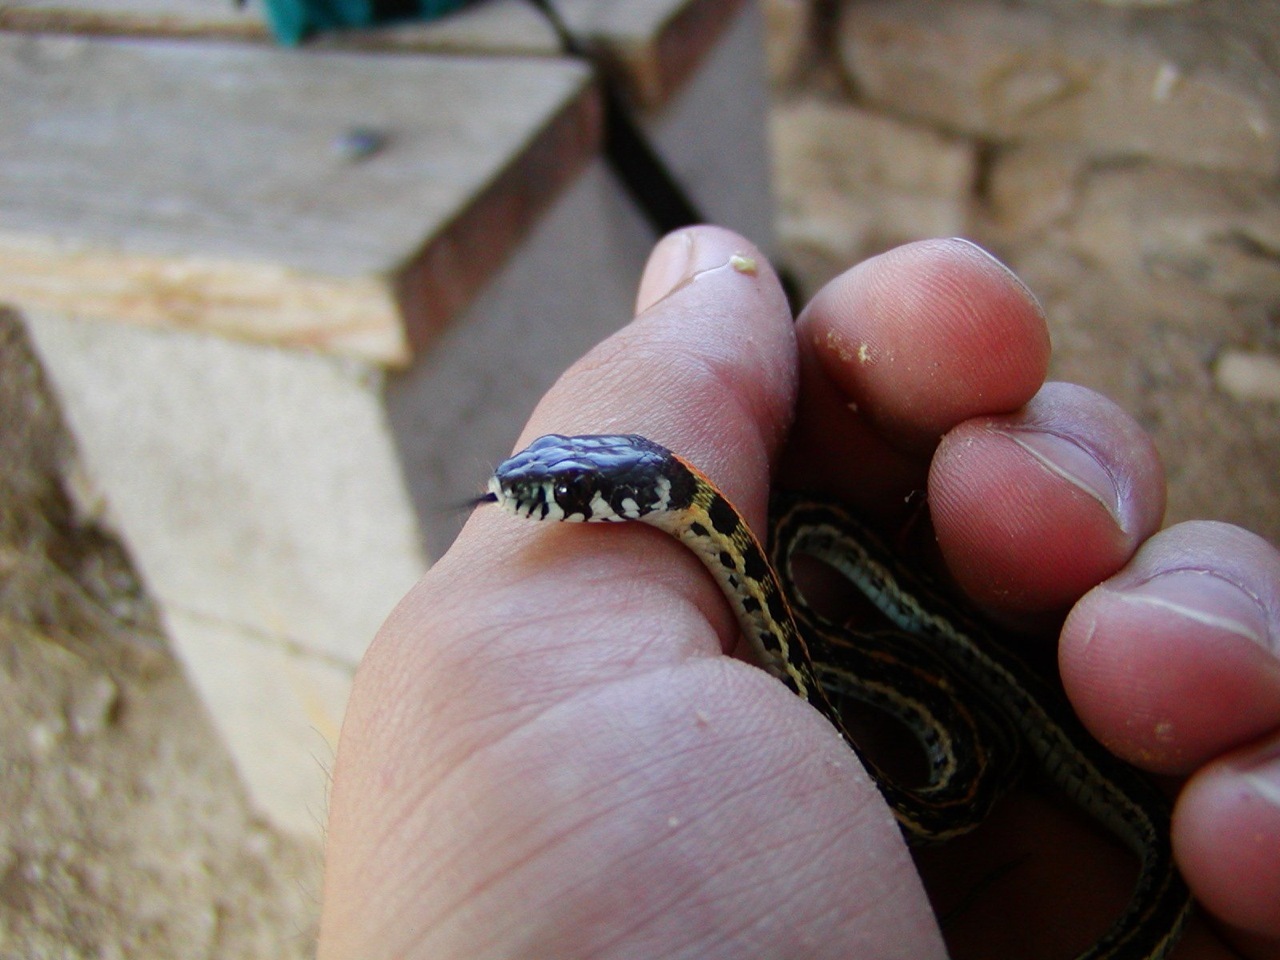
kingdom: Animalia
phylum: Chordata
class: Squamata
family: Colubridae
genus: Thamnophis
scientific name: Thamnophis cyrtopsis
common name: Black-necked gartersnake
